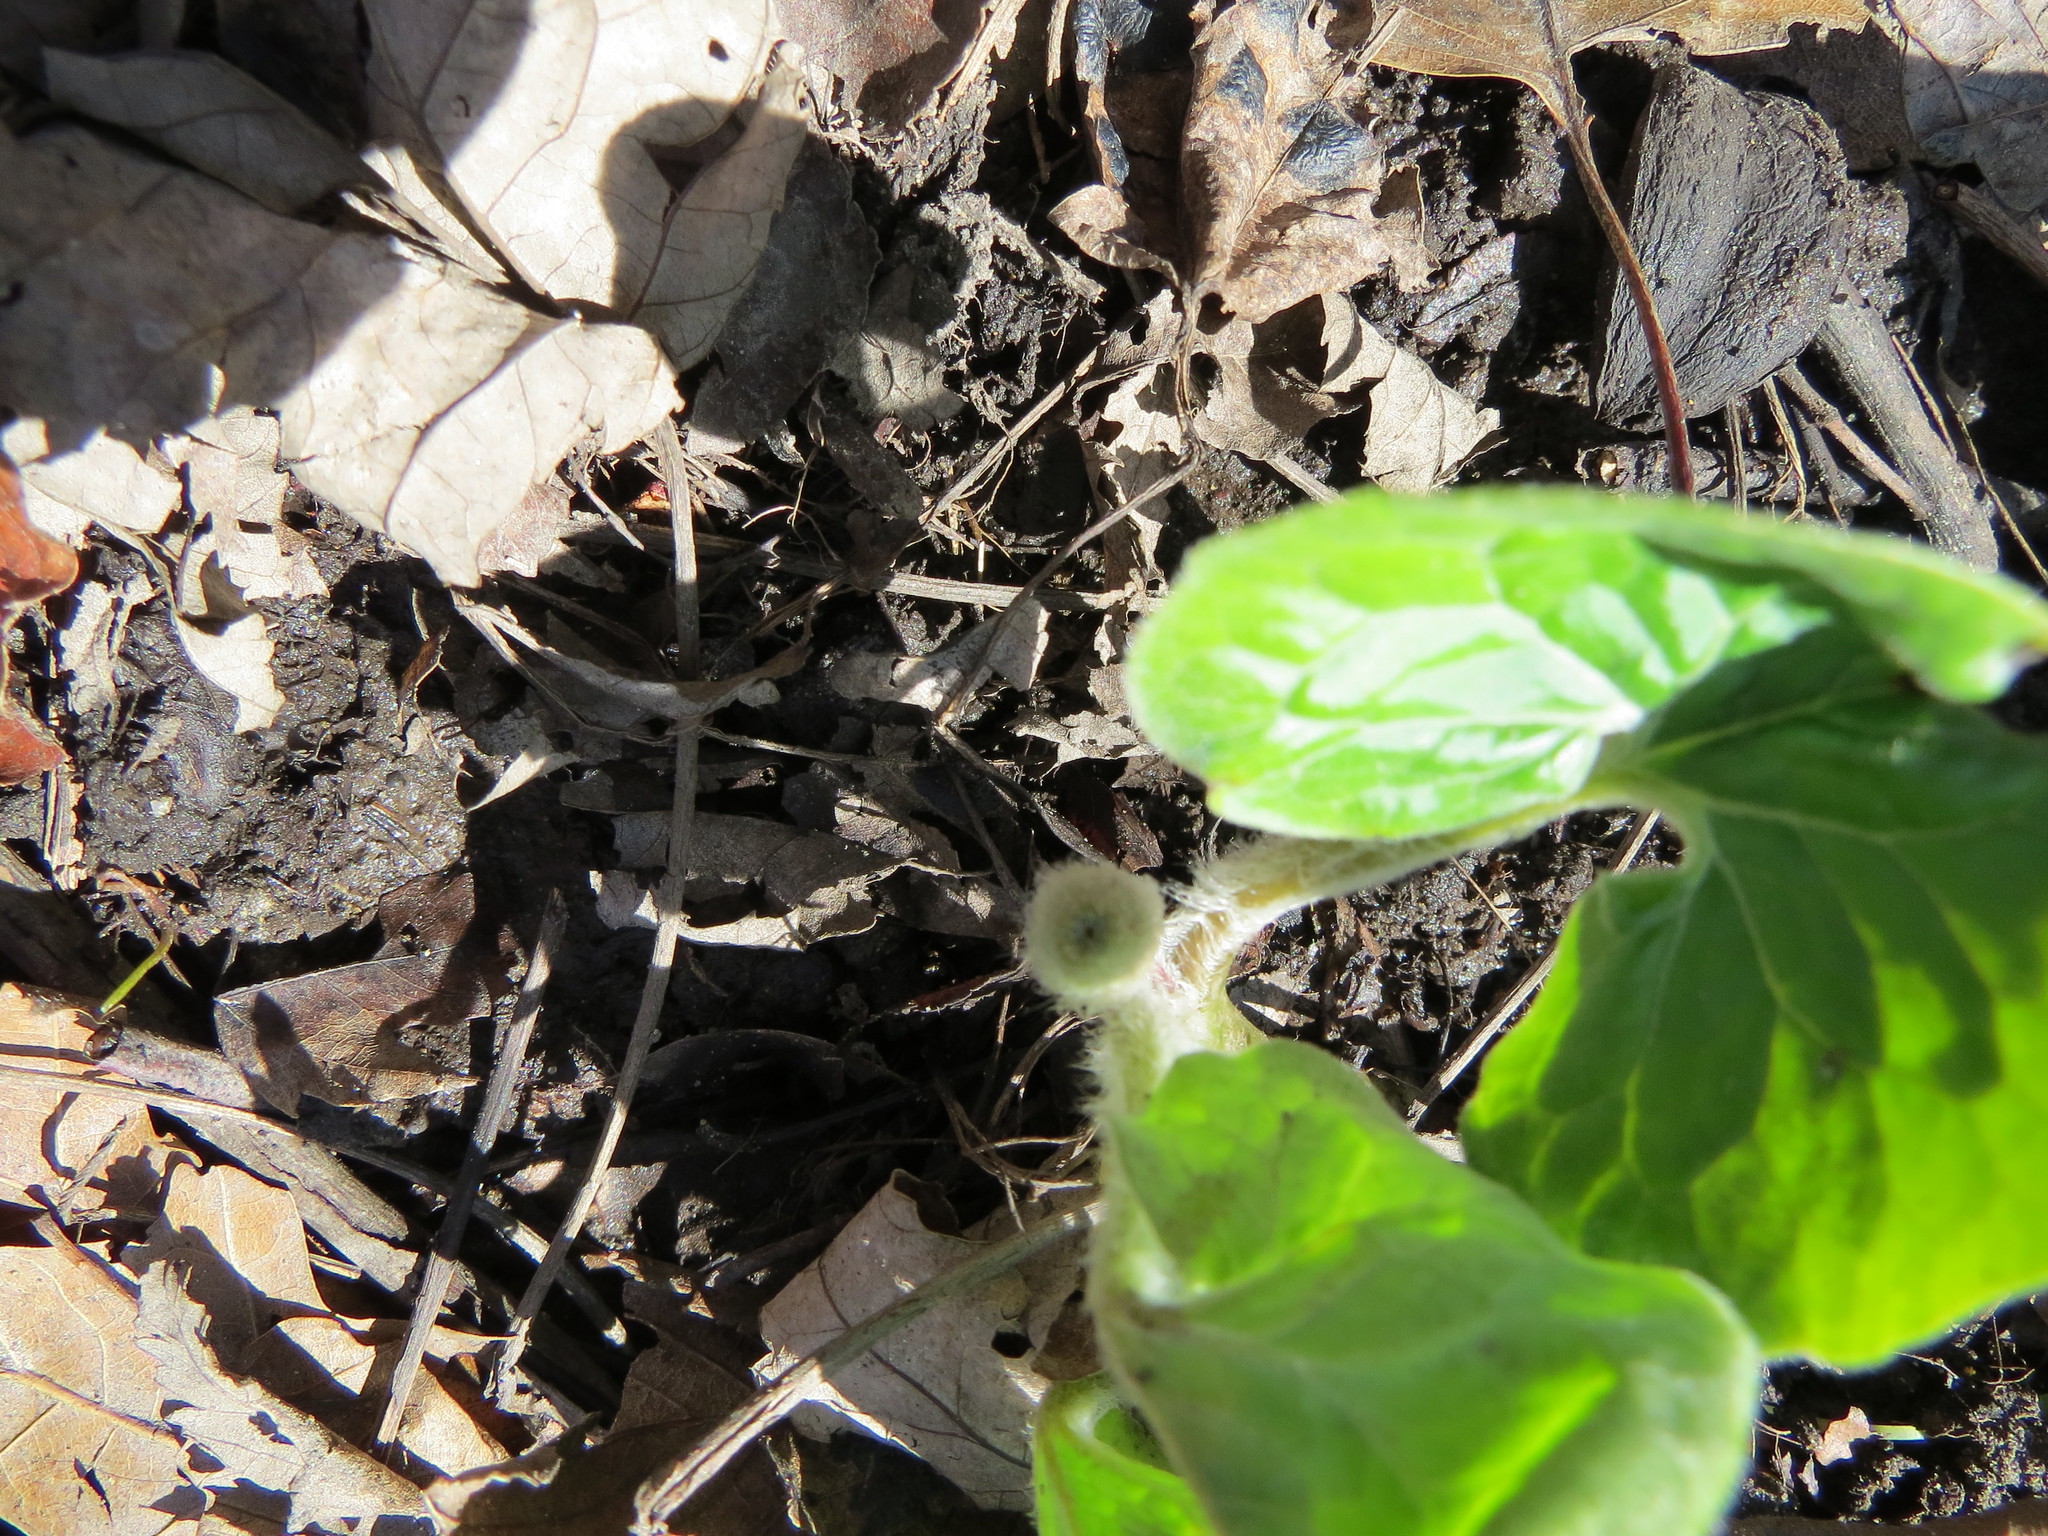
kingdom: Plantae
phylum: Tracheophyta
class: Magnoliopsida
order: Piperales
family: Aristolochiaceae
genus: Asarum
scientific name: Asarum canadense
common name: Wild ginger
